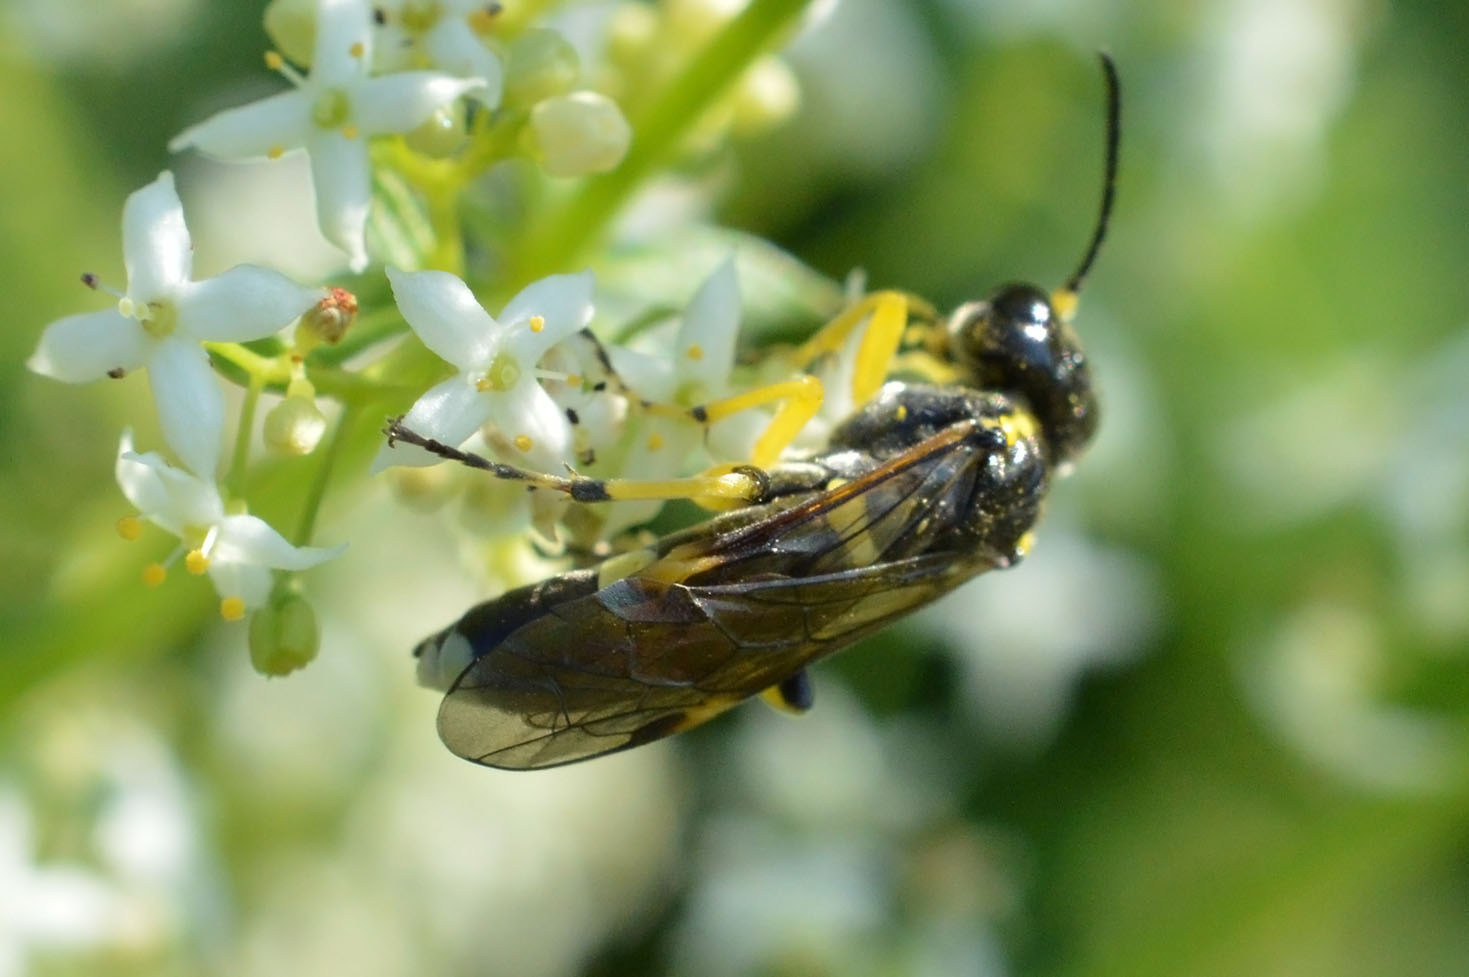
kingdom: Animalia
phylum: Arthropoda
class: Insecta
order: Hymenoptera
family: Tenthredinidae
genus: Tenthredo
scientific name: Tenthredo zonula
